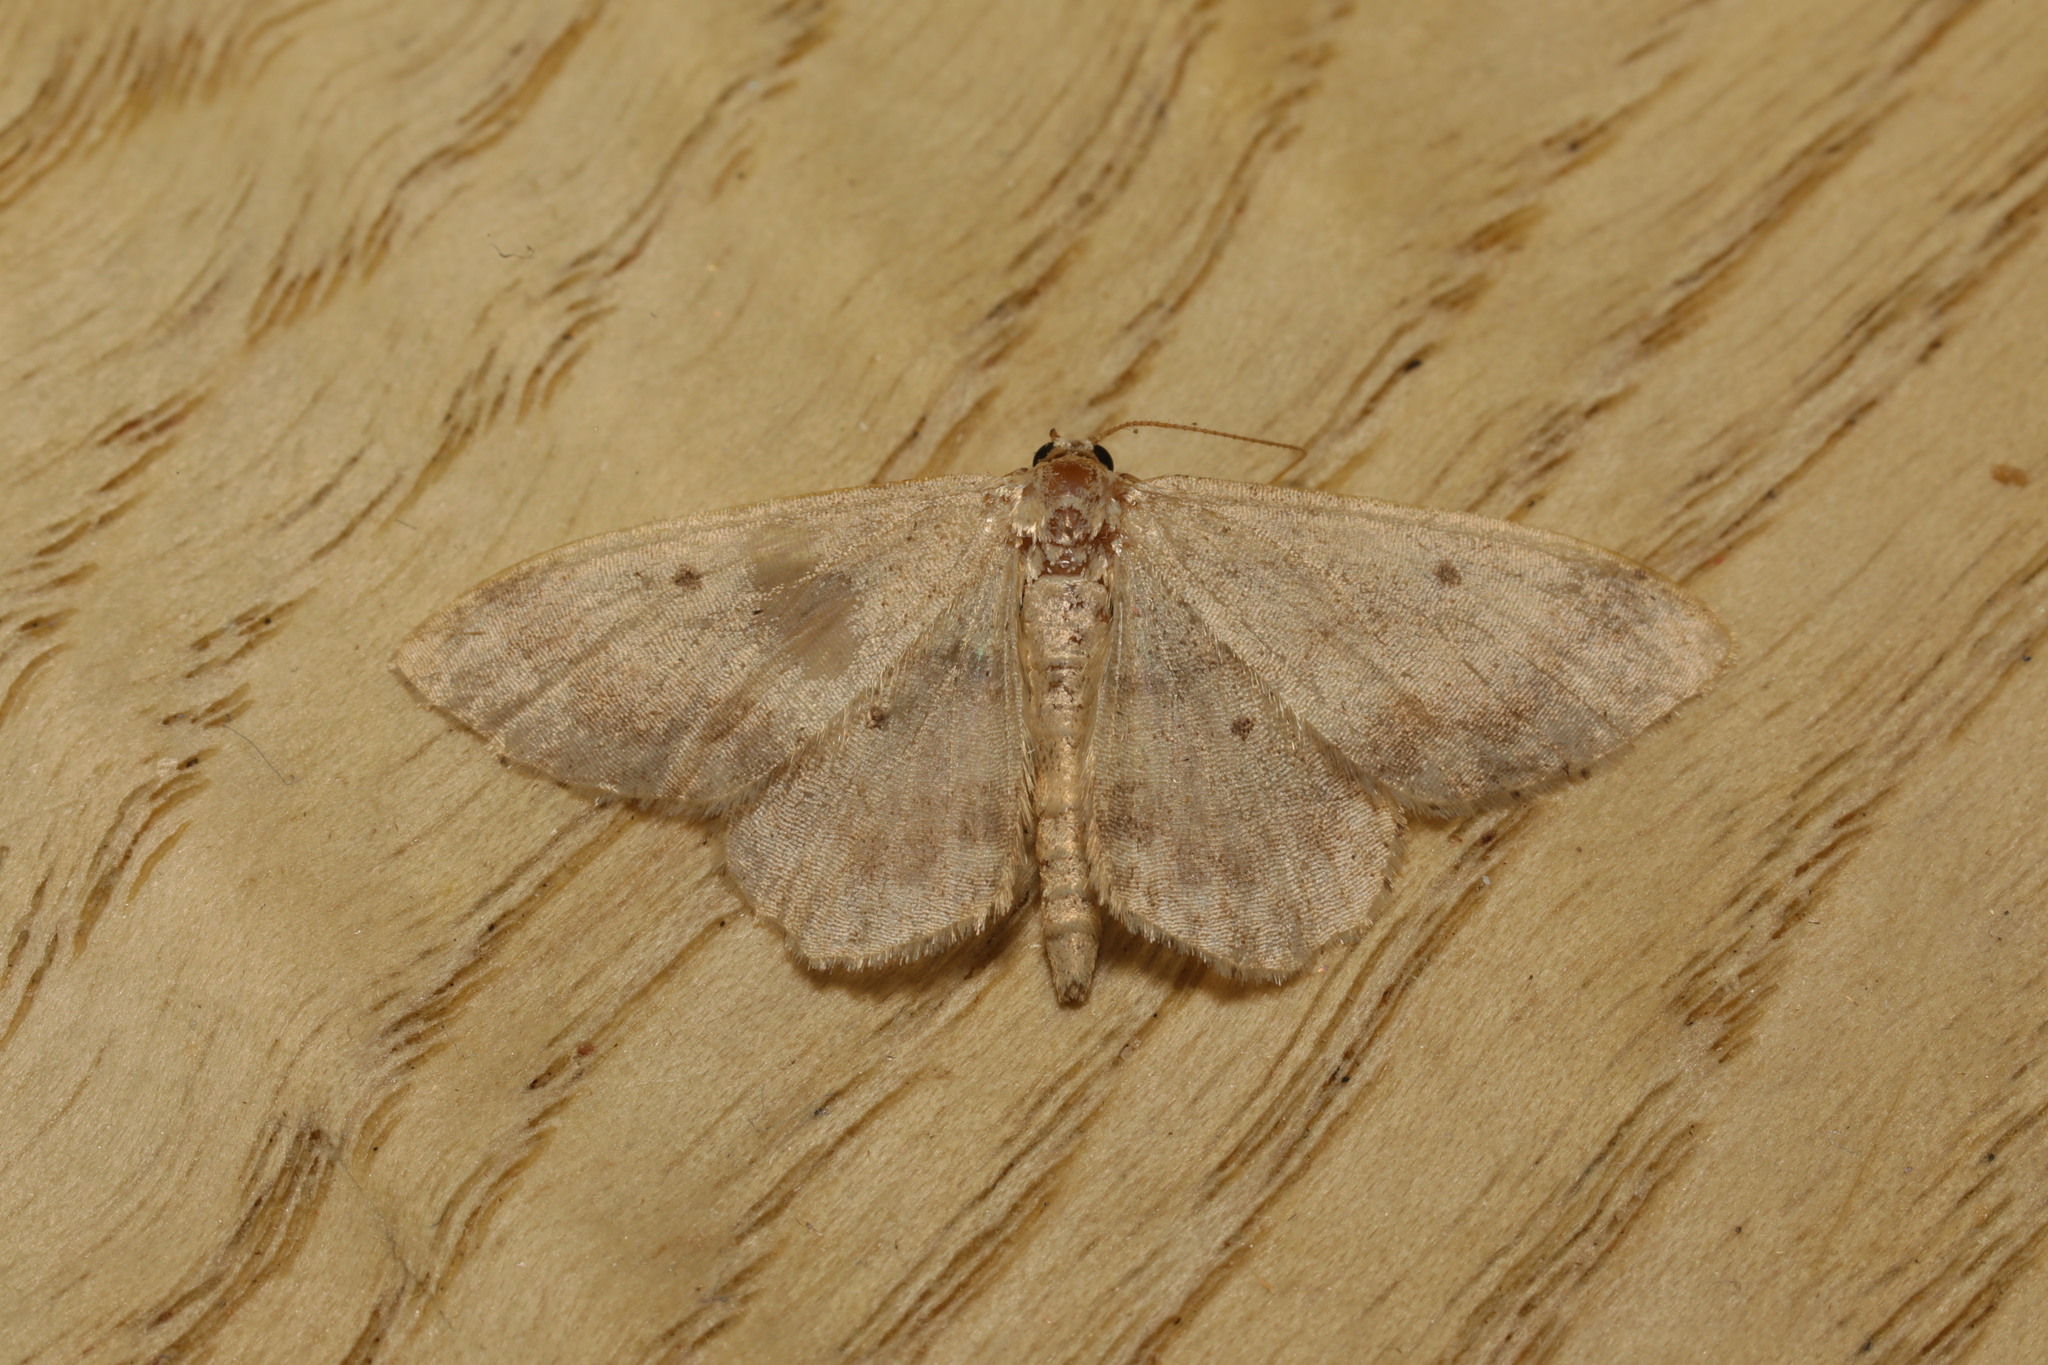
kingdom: Animalia
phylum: Arthropoda
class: Insecta
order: Lepidoptera
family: Geometridae
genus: Idaea
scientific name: Idaea biselata
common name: Small fan-footed wave
